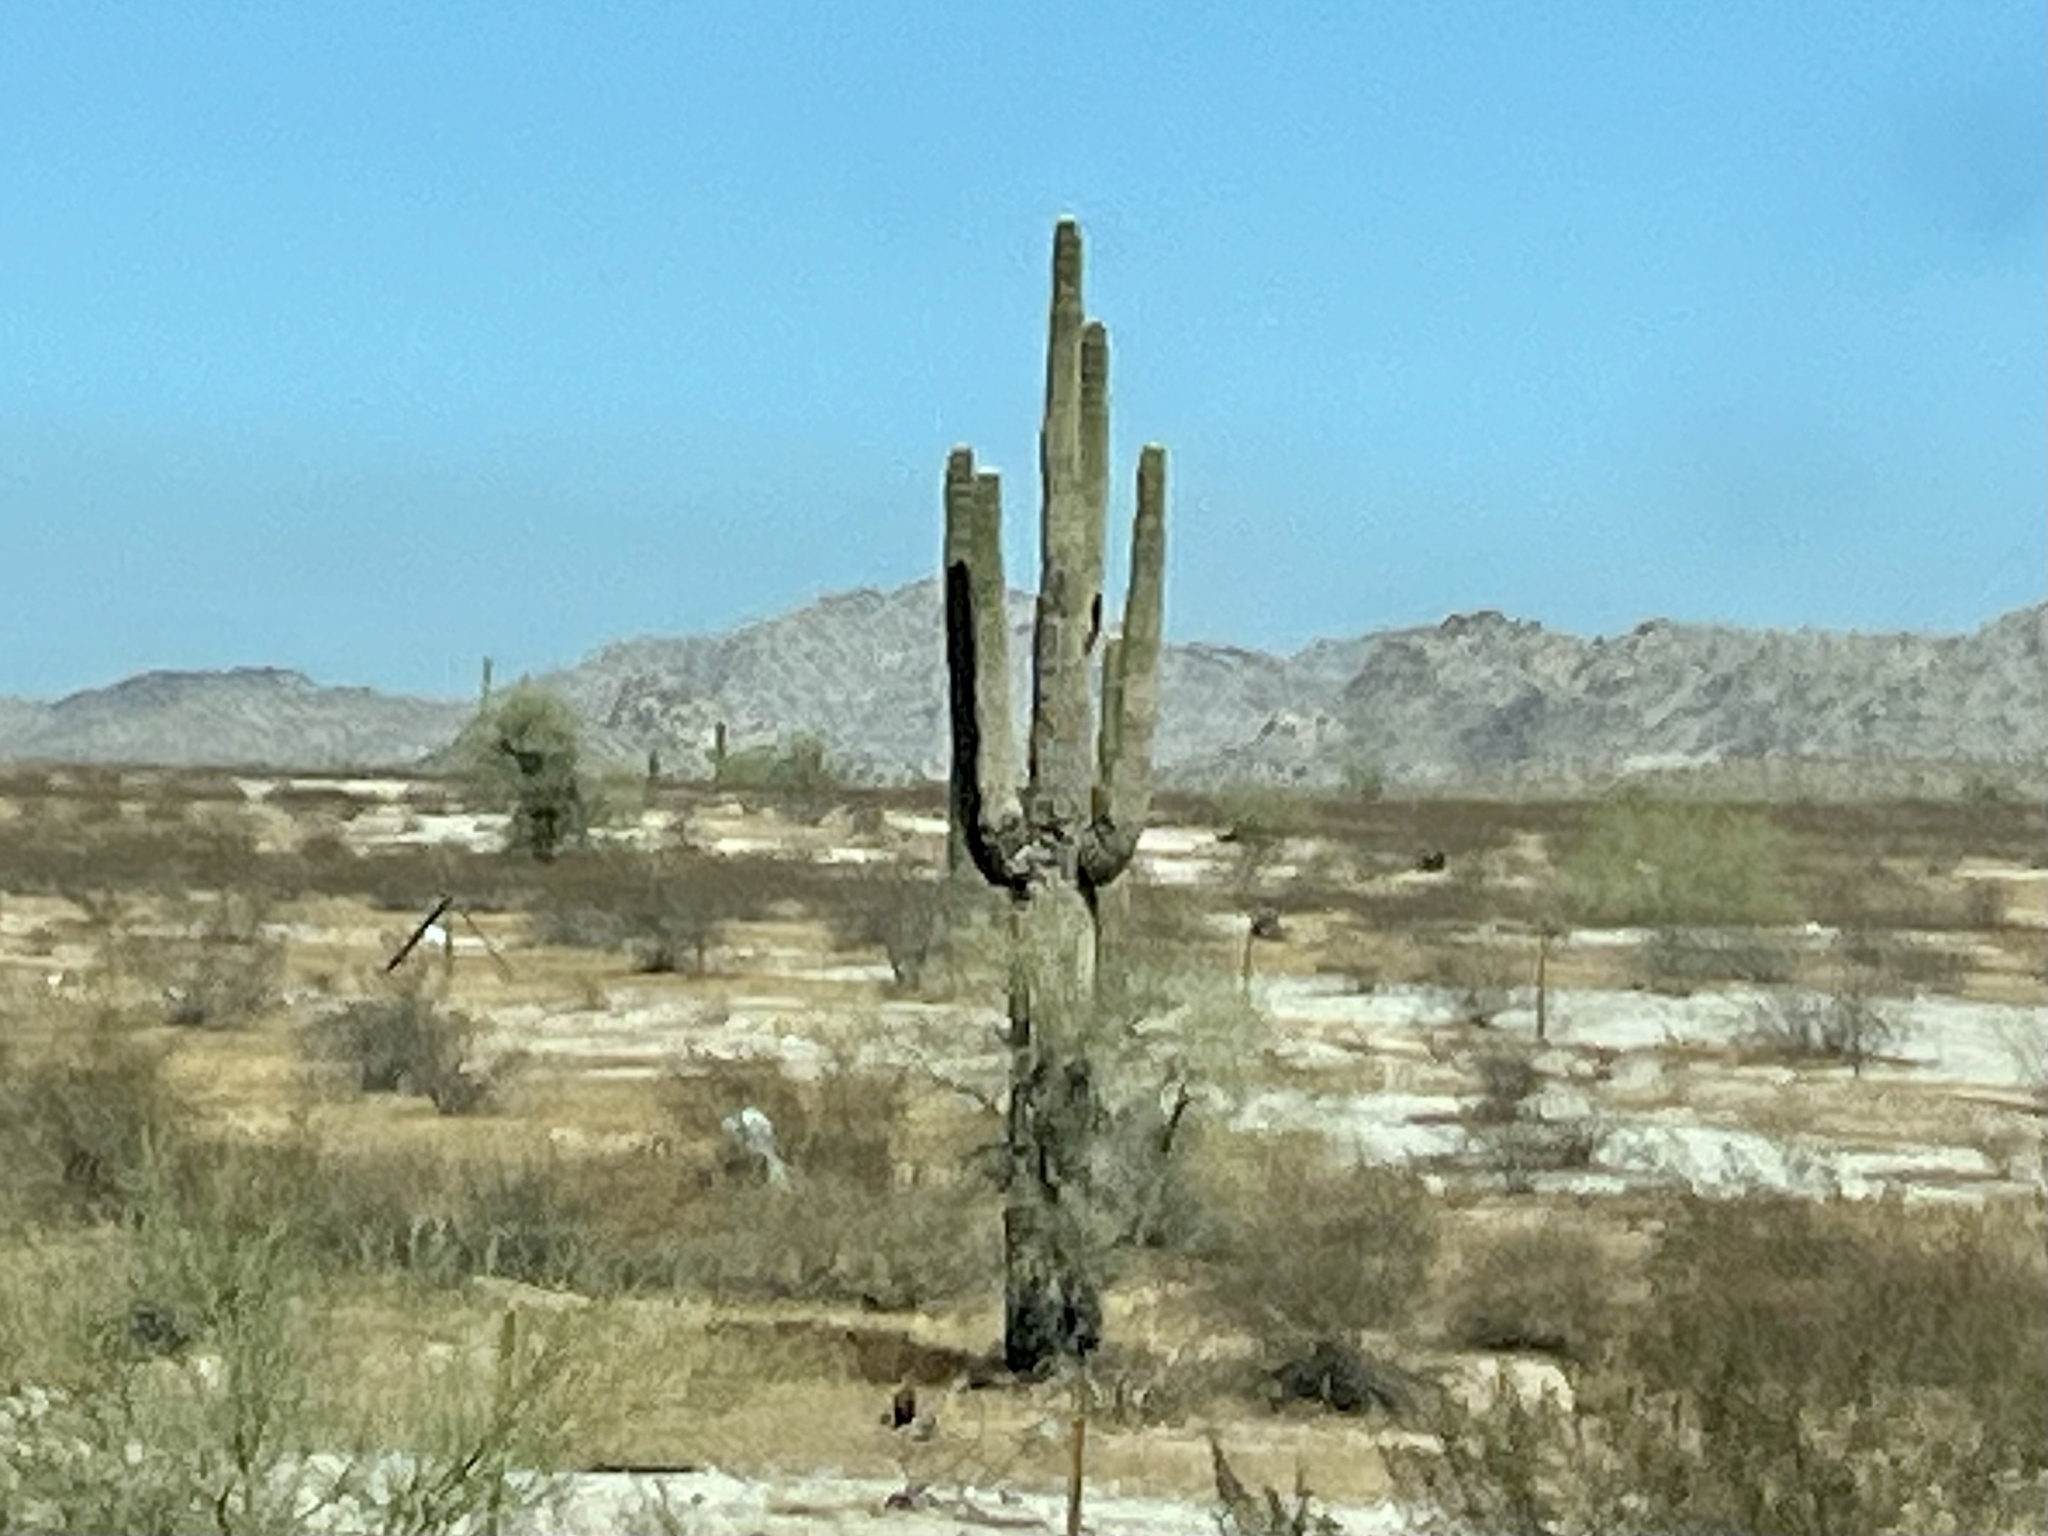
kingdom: Plantae
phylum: Tracheophyta
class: Magnoliopsida
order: Caryophyllales
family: Cactaceae
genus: Carnegiea
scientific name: Carnegiea gigantea
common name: Saguaro
